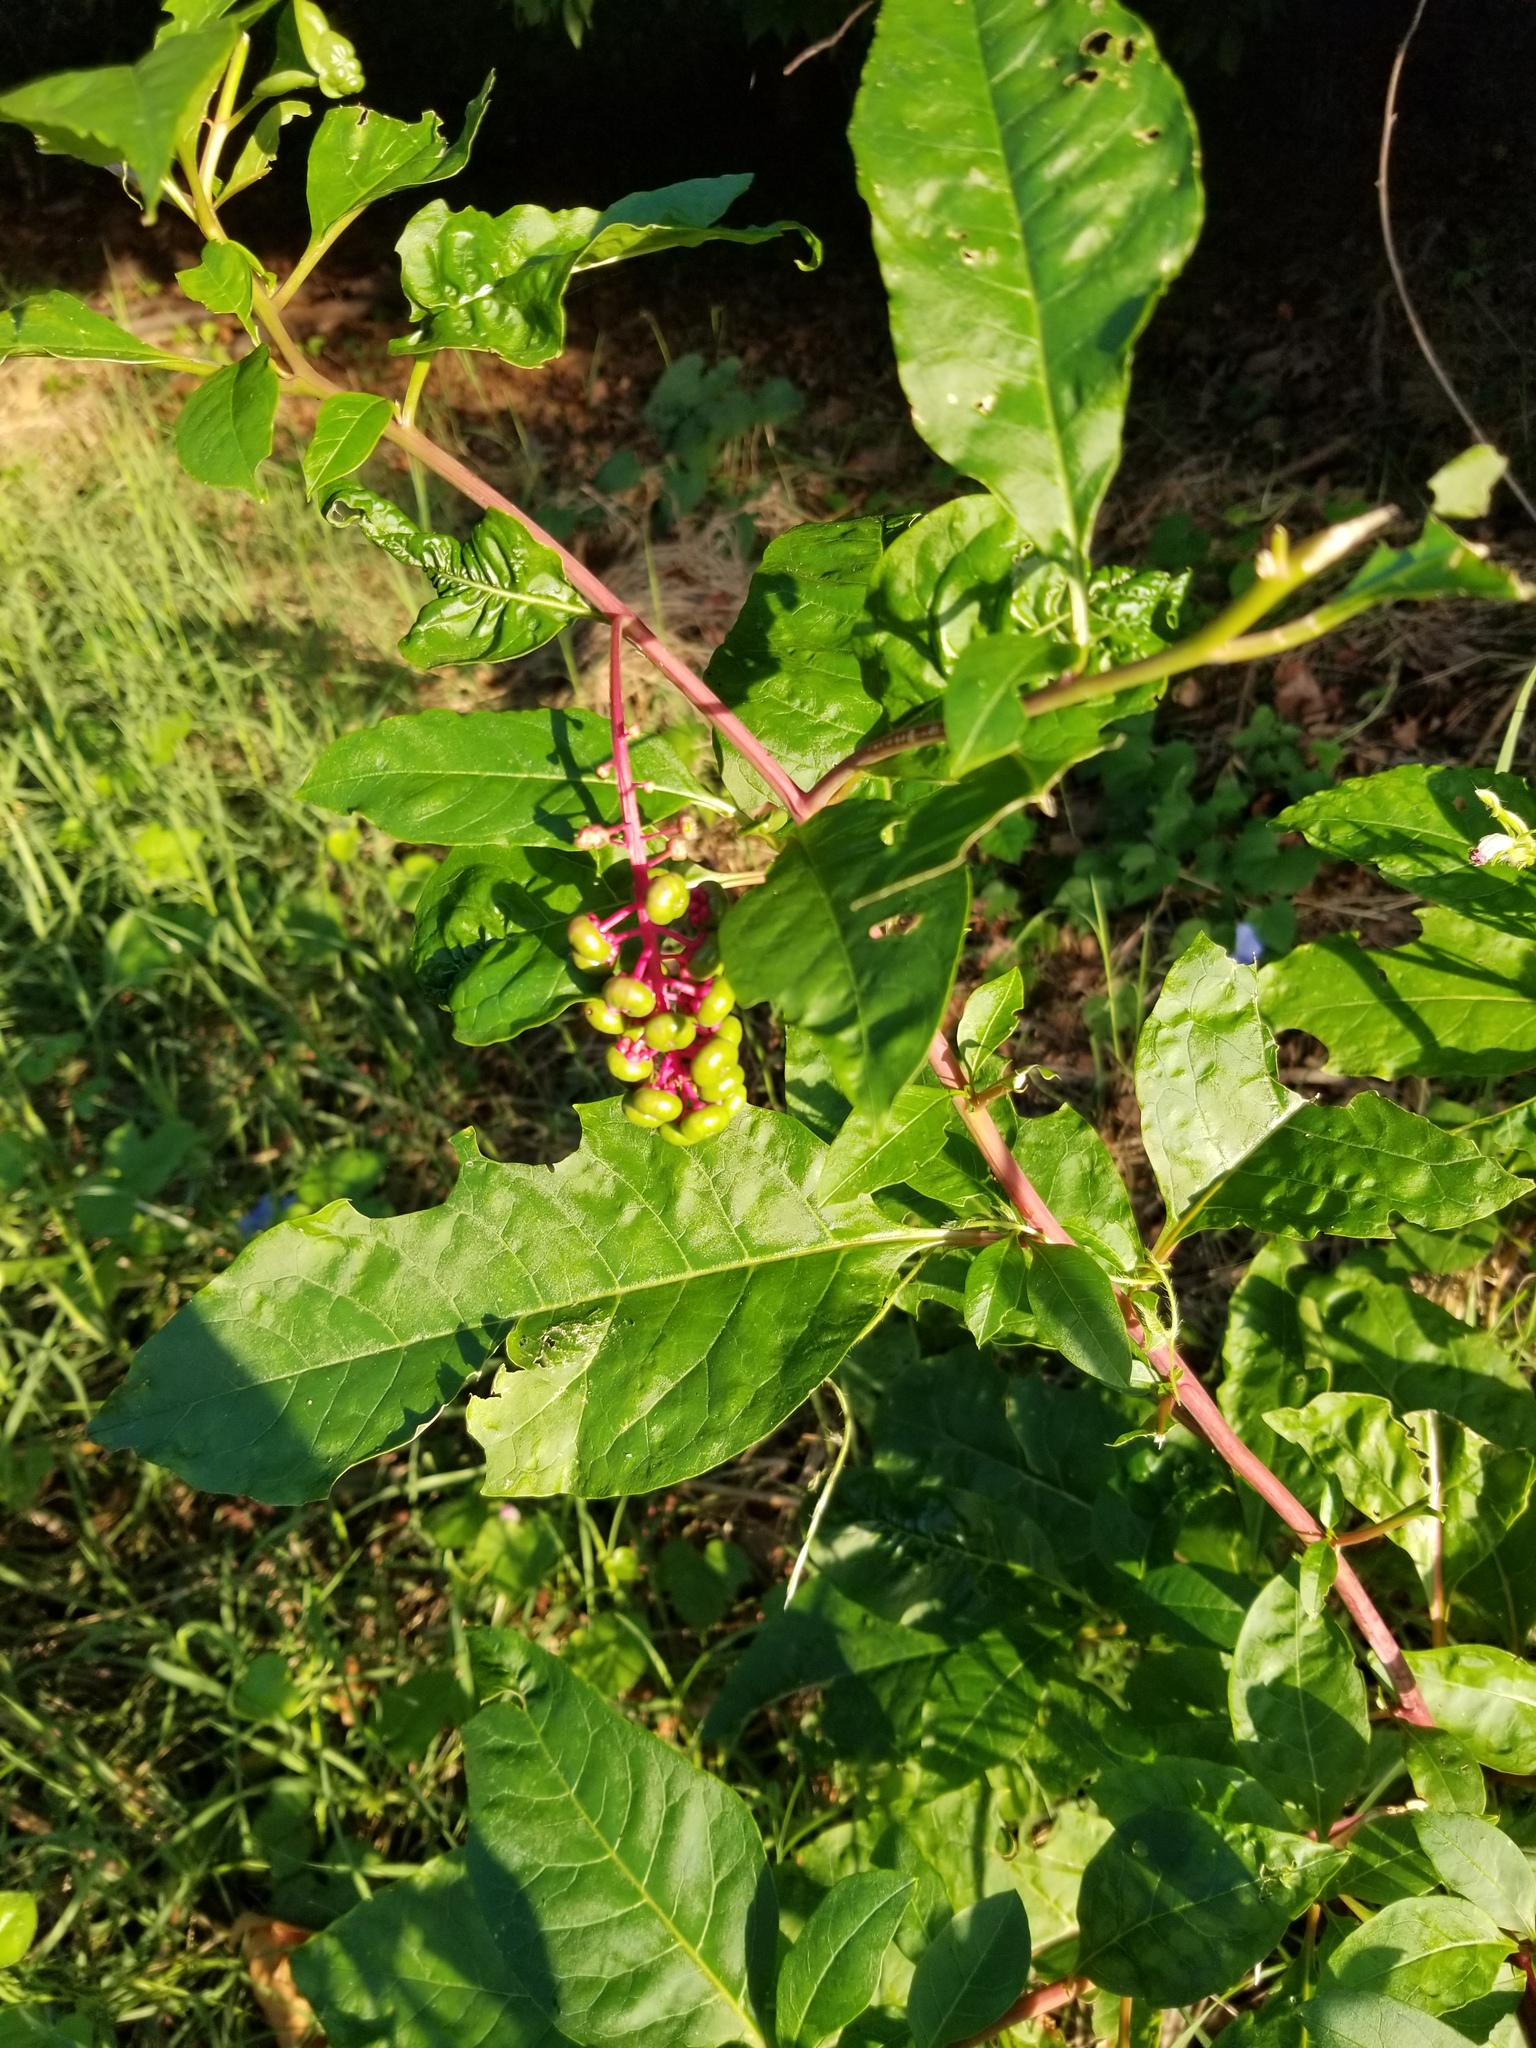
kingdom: Plantae
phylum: Tracheophyta
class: Magnoliopsida
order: Caryophyllales
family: Phytolaccaceae
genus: Phytolacca
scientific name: Phytolacca americana
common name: American pokeweed
